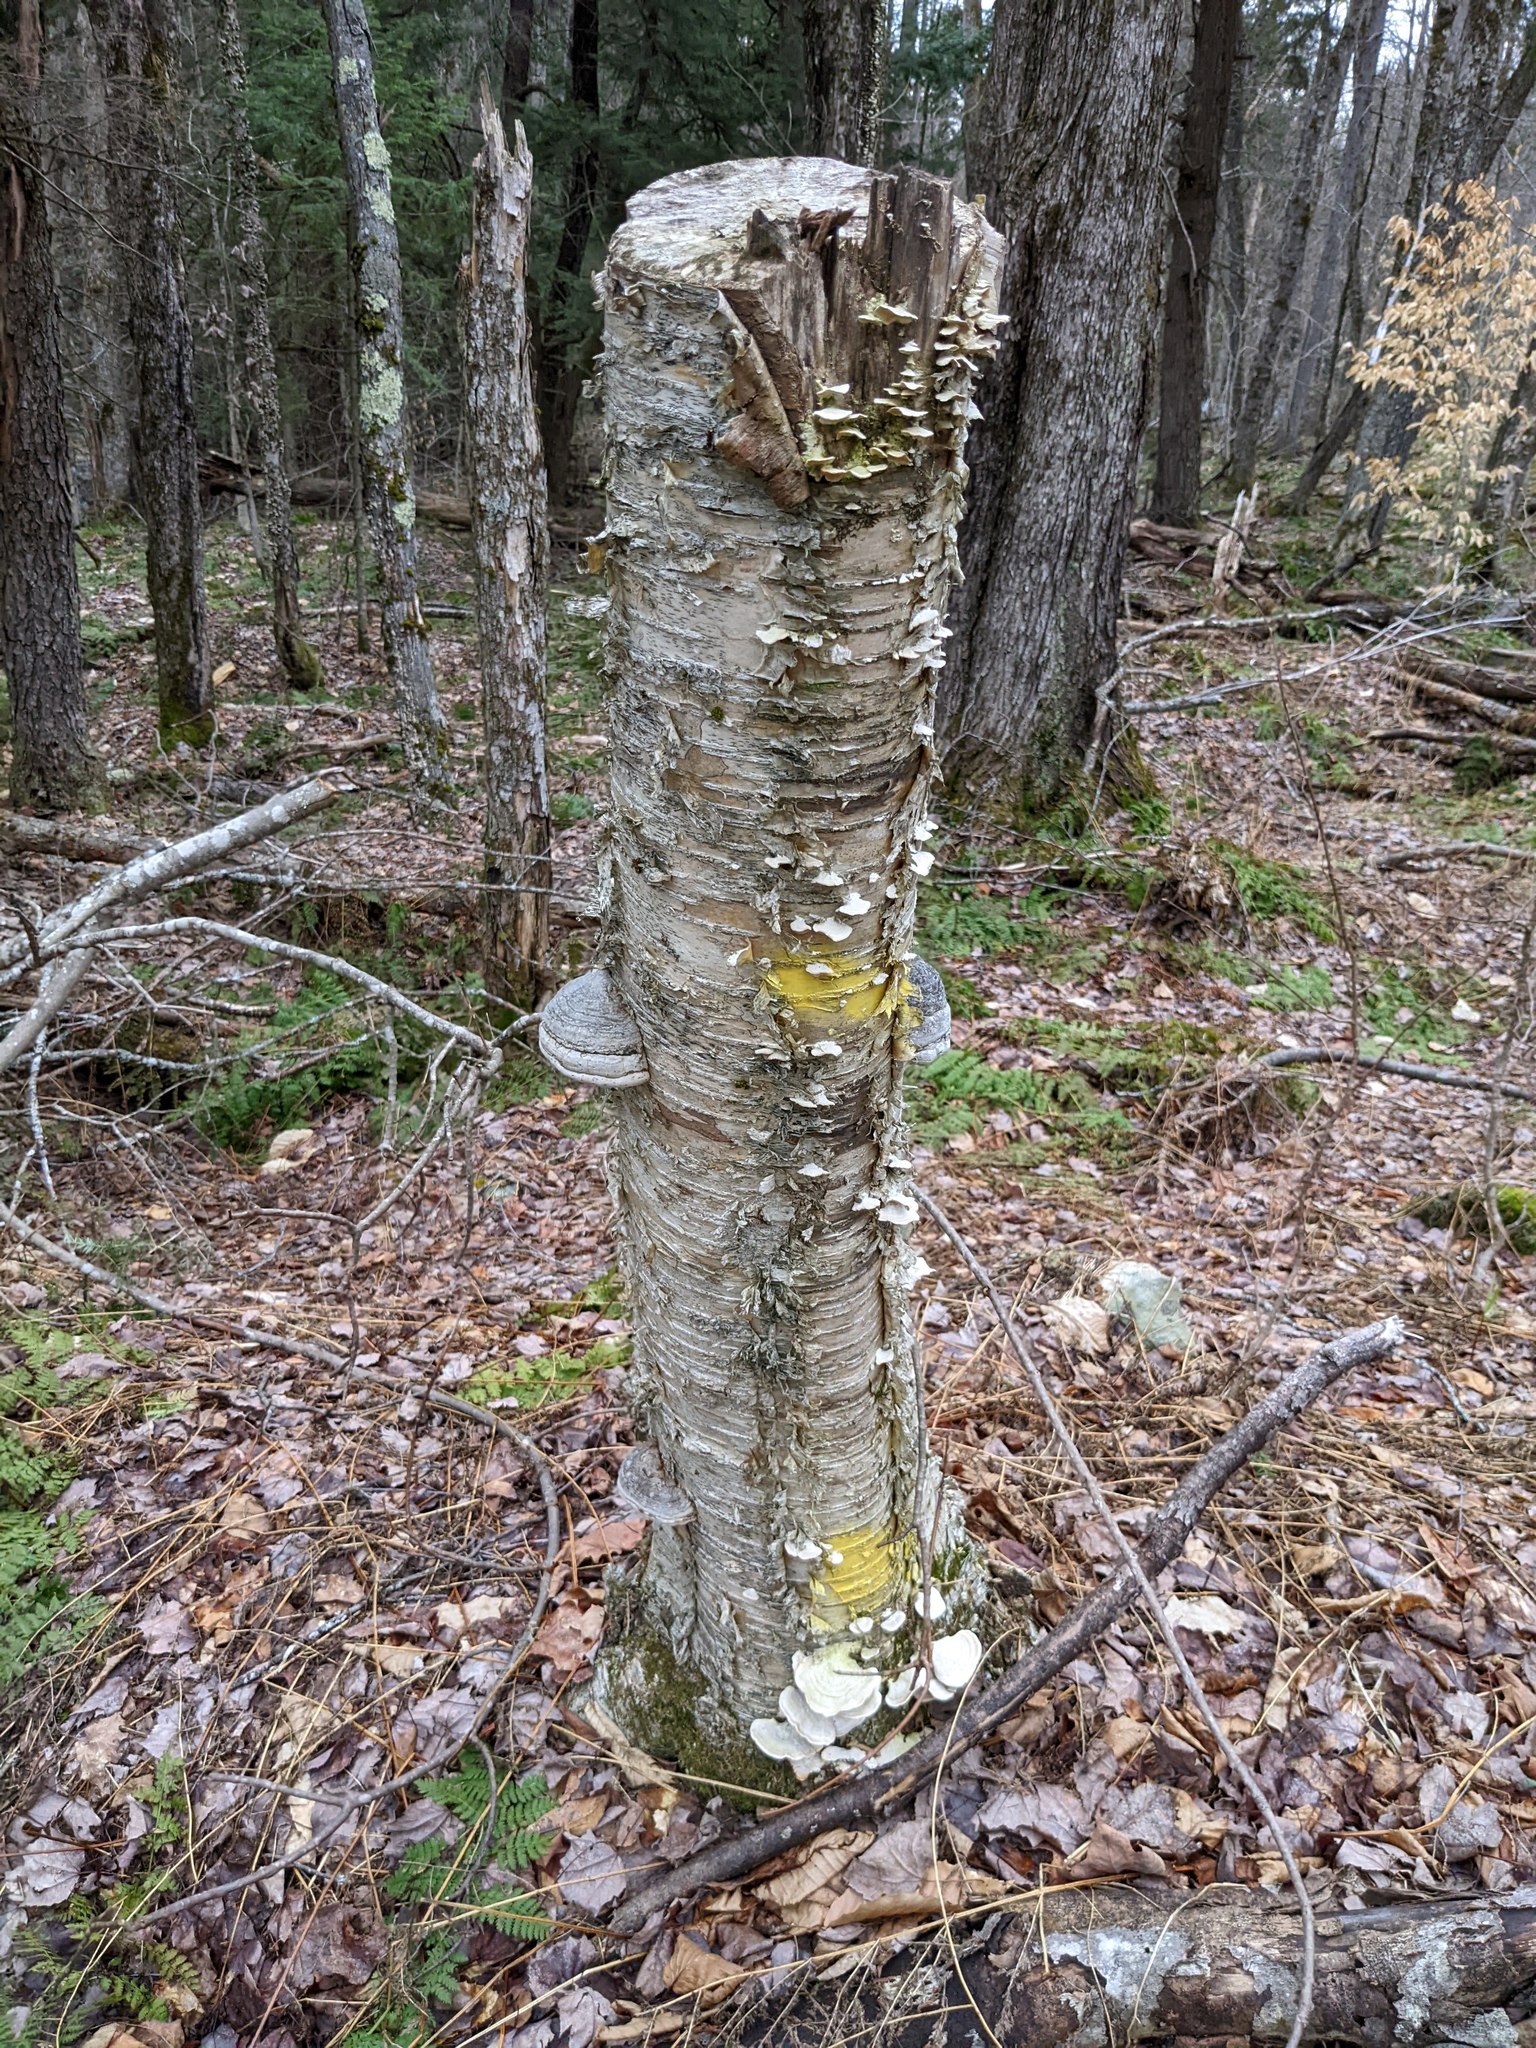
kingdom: Plantae
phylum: Tracheophyta
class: Magnoliopsida
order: Fagales
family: Betulaceae
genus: Betula
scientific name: Betula alleghaniensis
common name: Yellow birch
